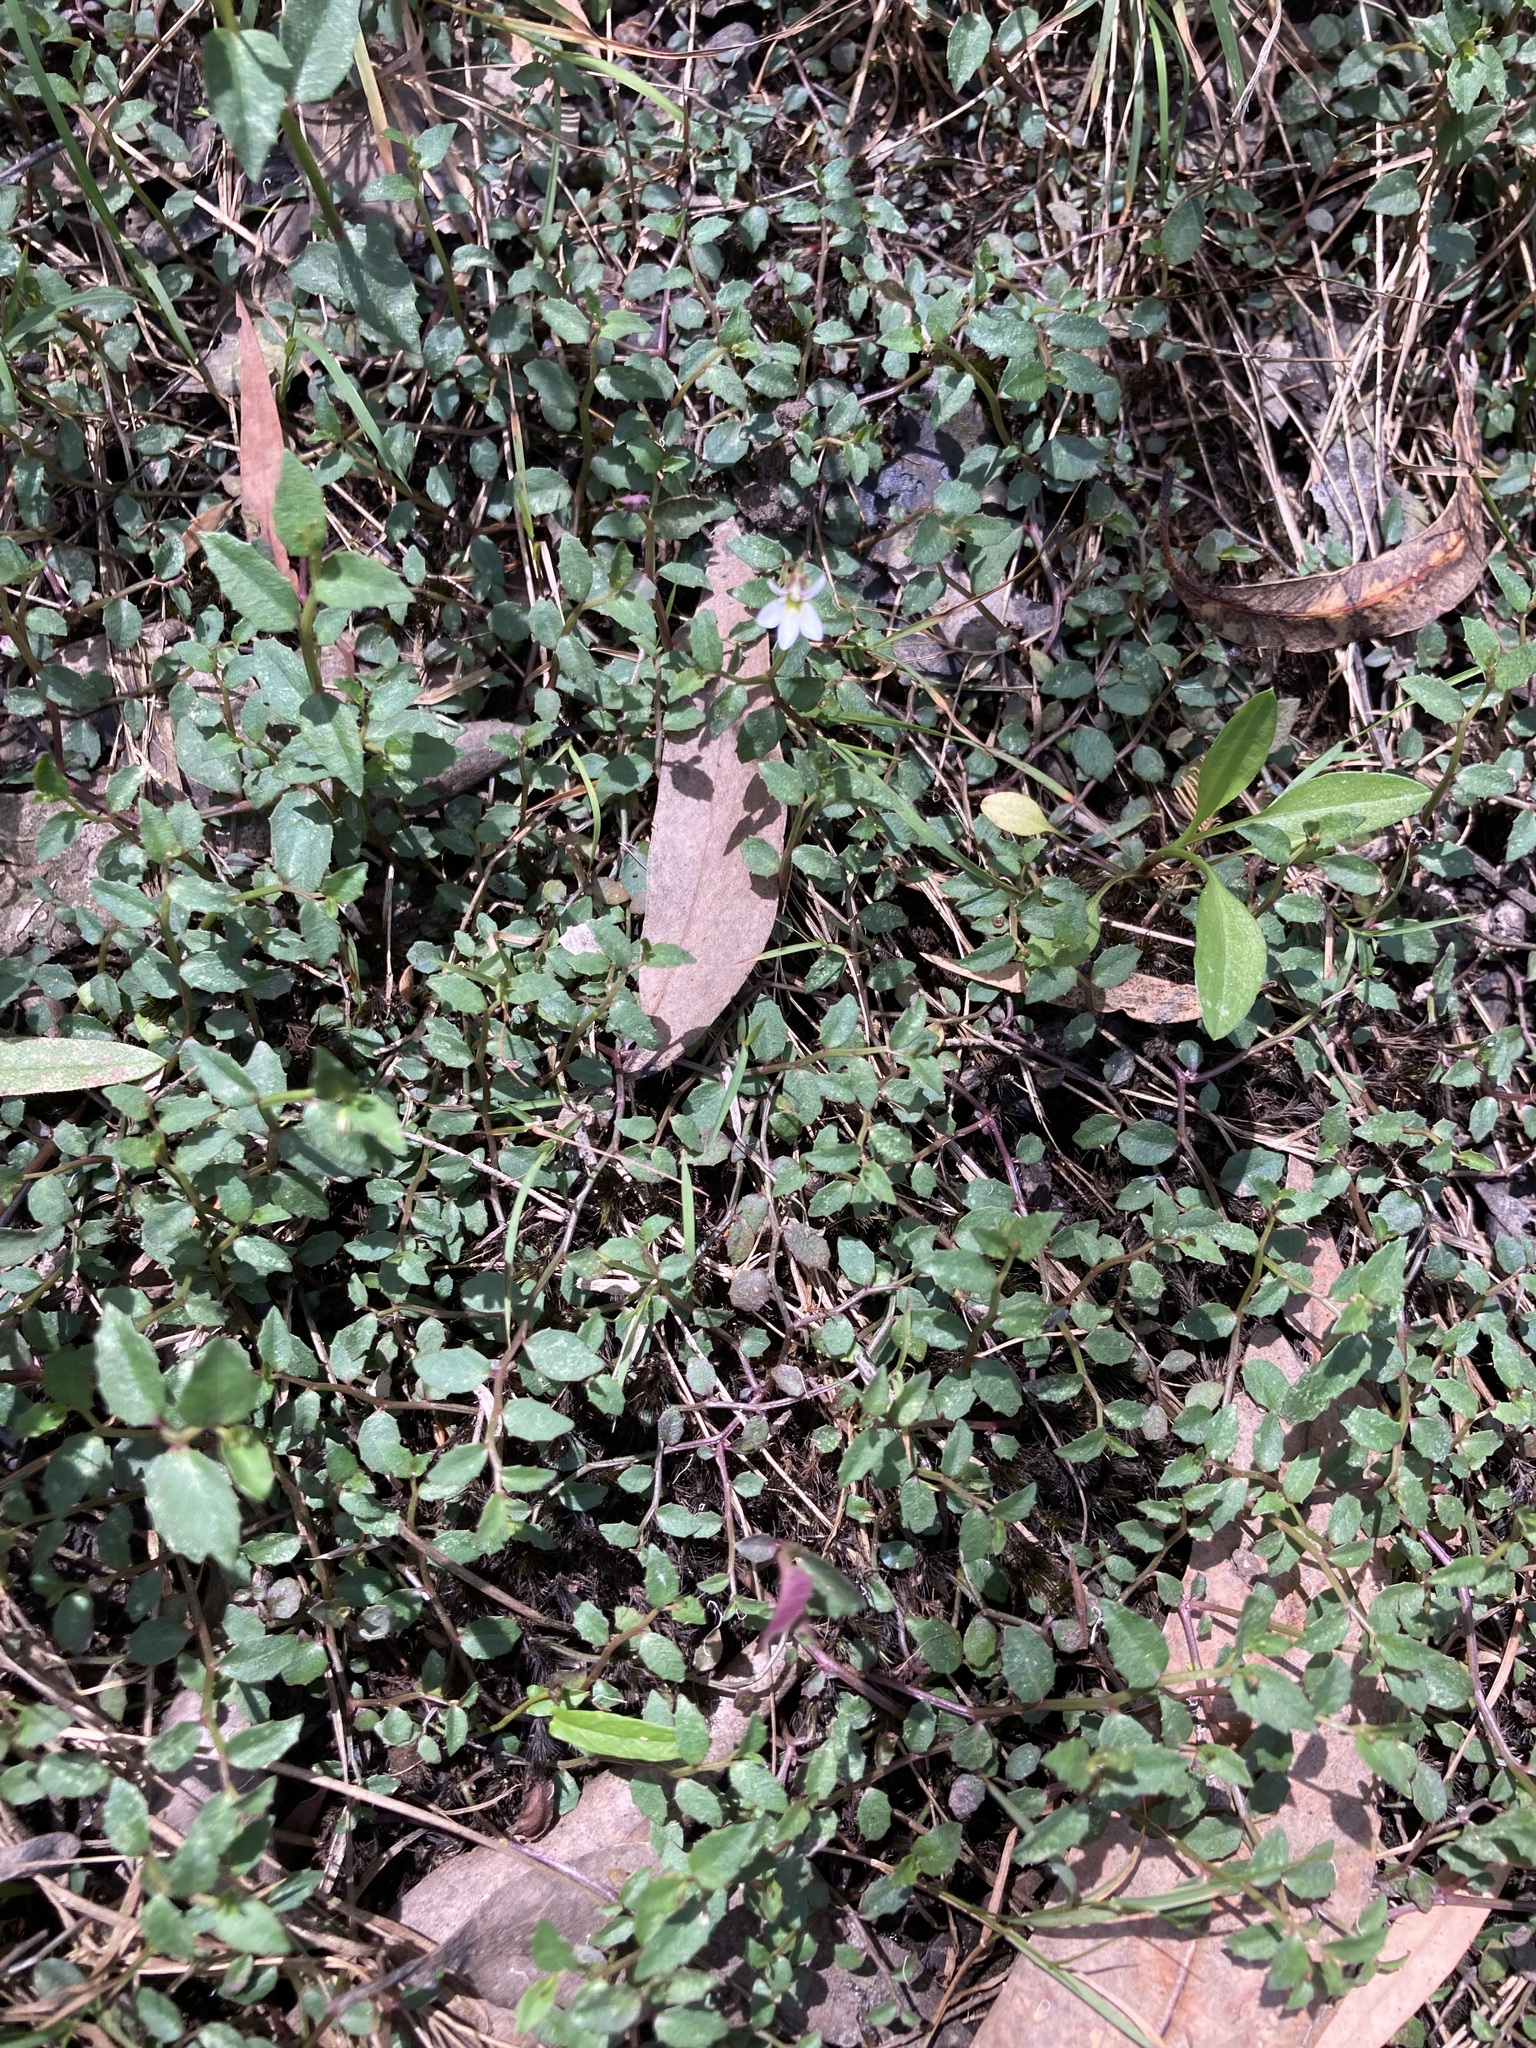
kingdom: Plantae
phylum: Tracheophyta
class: Magnoliopsida
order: Asterales
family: Campanulaceae
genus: Lobelia
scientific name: Lobelia purpurascens
